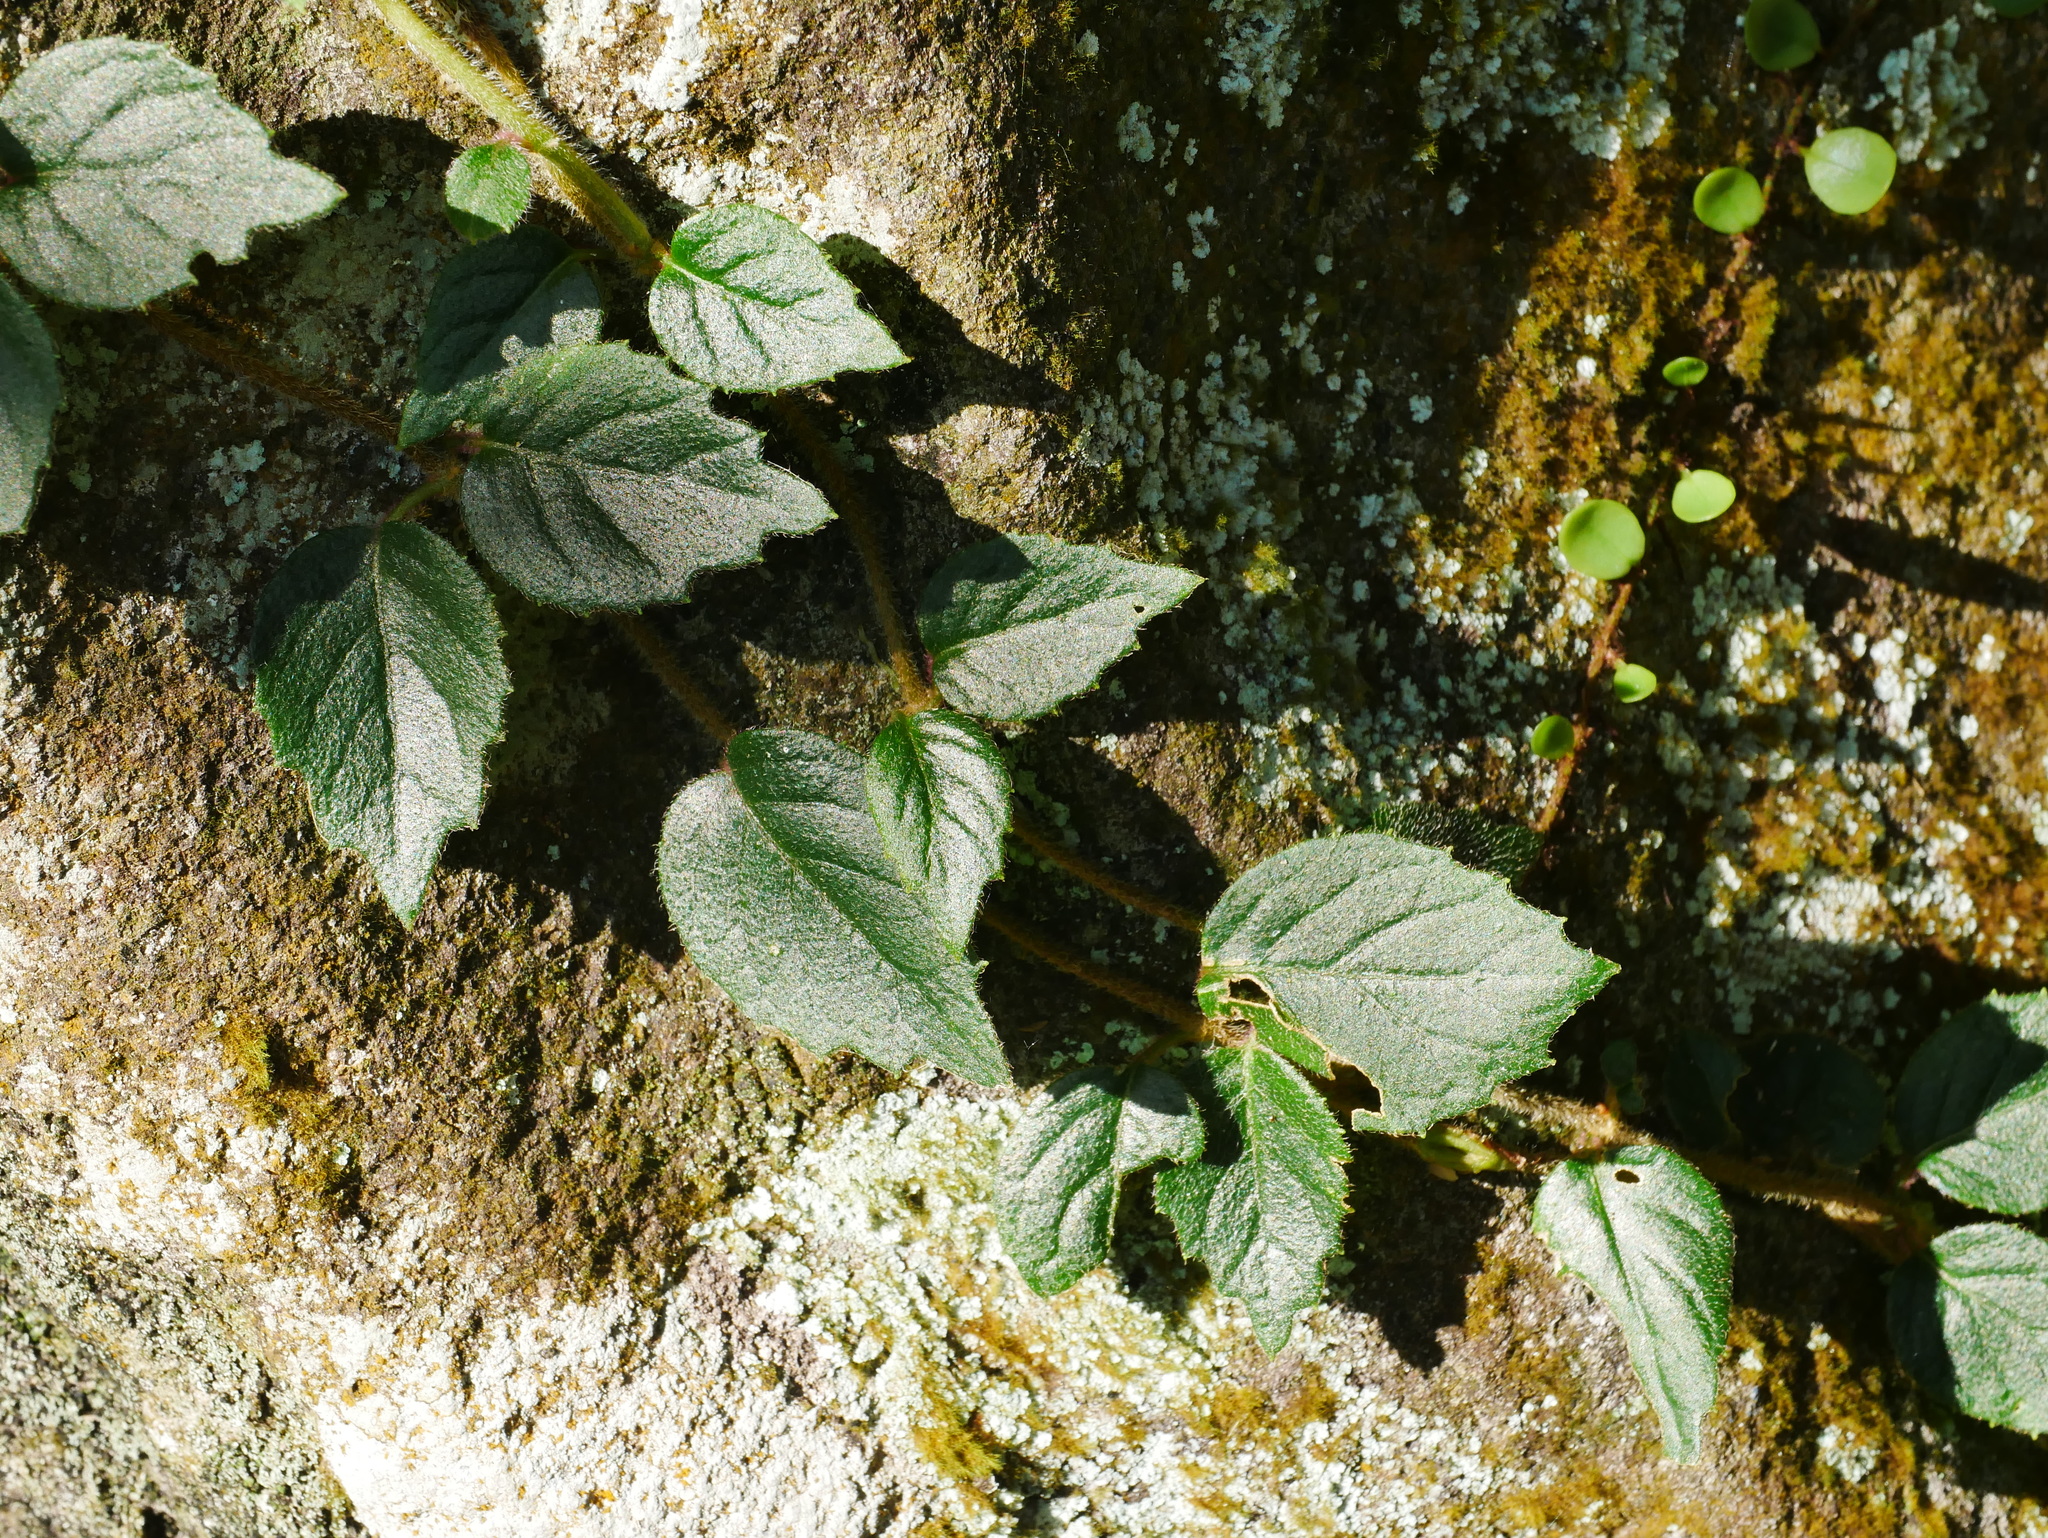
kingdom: Plantae
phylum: Tracheophyta
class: Magnoliopsida
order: Cornales
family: Hydrangeaceae
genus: Hydrangea
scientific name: Hydrangea fauriei
